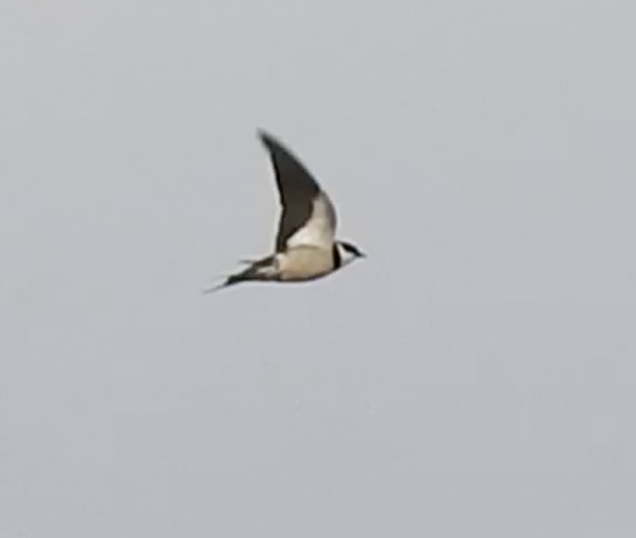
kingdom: Animalia
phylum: Chordata
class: Aves
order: Passeriformes
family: Hirundinidae
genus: Hirundo
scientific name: Hirundo albigularis
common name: White-throated swallow
